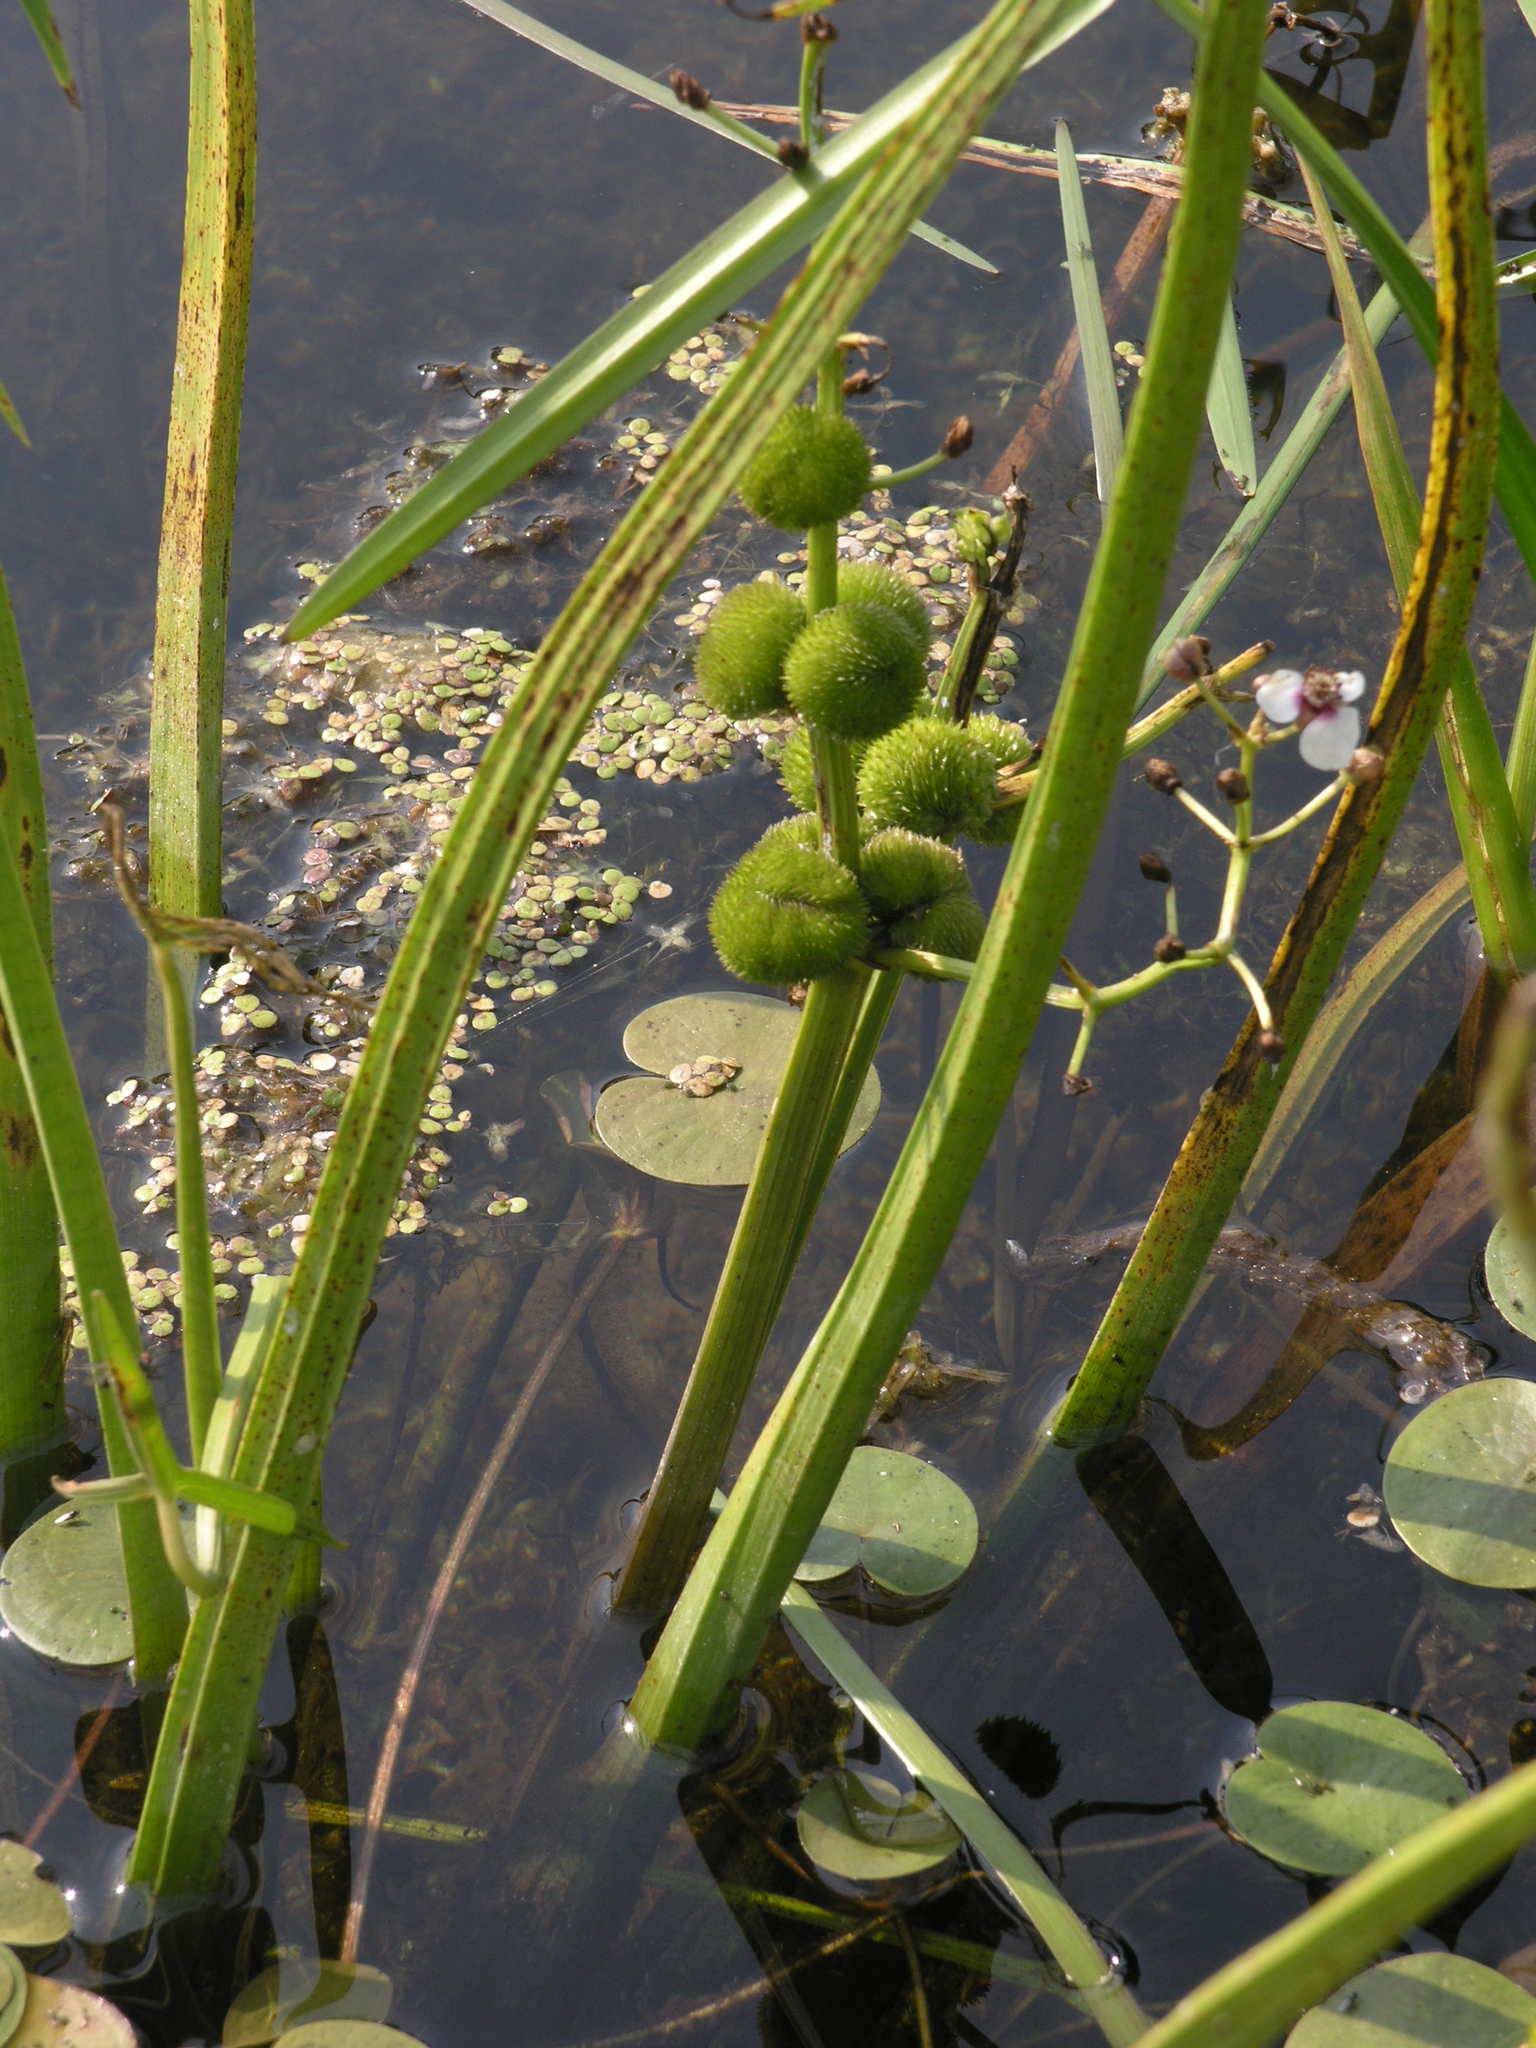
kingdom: Plantae
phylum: Tracheophyta
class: Liliopsida
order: Alismatales
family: Alismataceae
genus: Sagittaria
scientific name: Sagittaria sagittifolia
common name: Arrowhead
